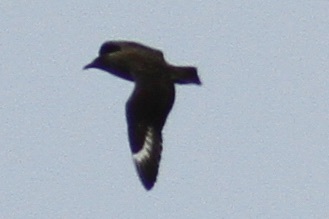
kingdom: Animalia
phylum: Chordata
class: Aves
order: Charadriiformes
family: Stercorariidae
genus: Stercorarius
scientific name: Stercorarius skua
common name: Great skua
